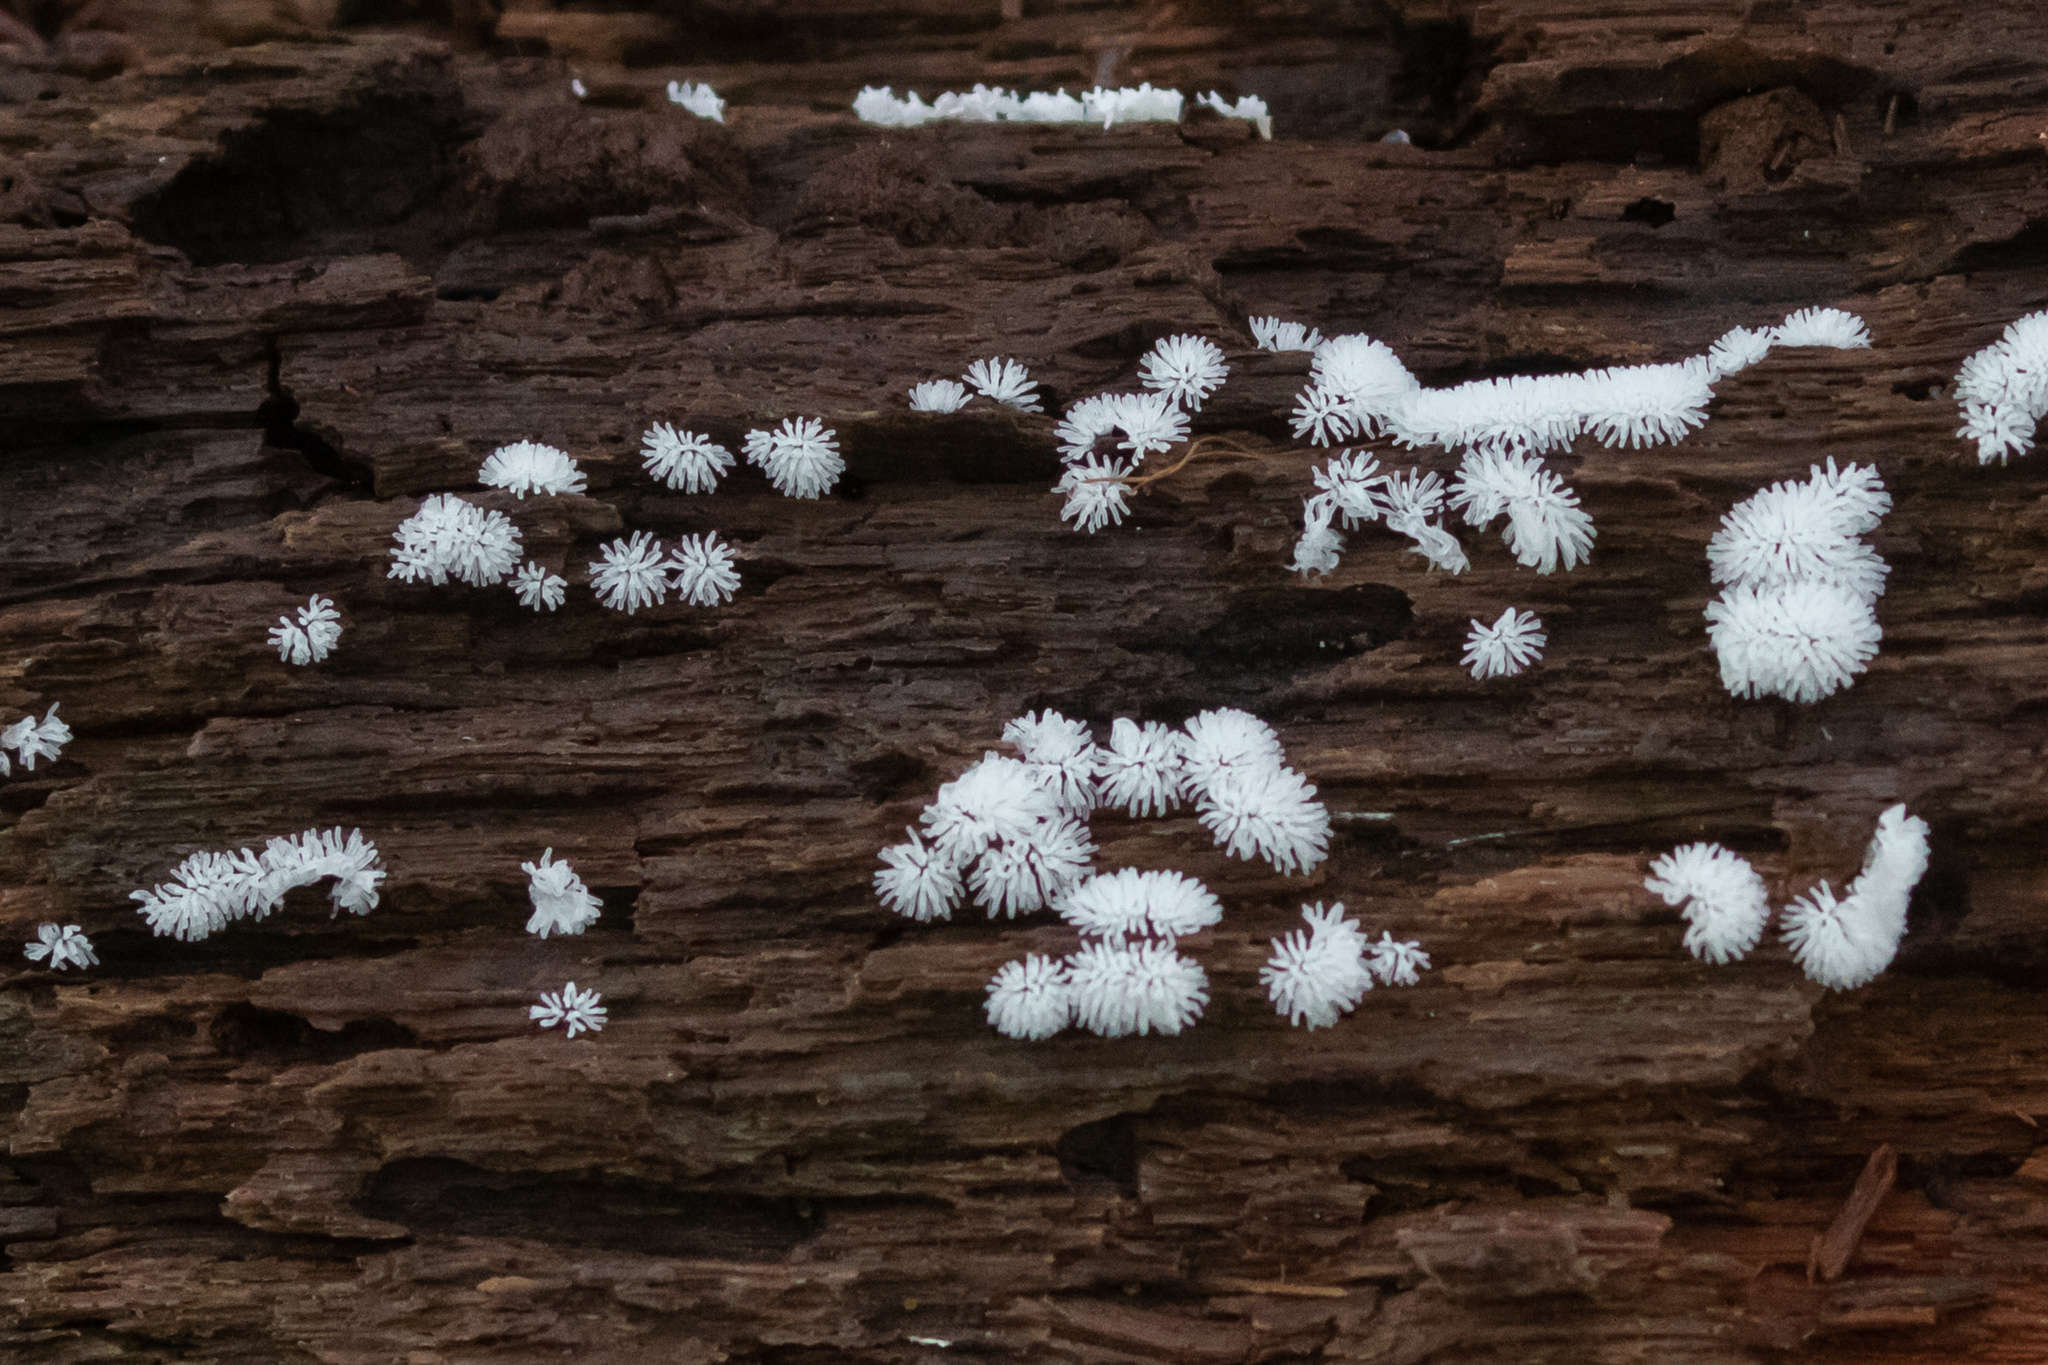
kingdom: Protozoa
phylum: Mycetozoa
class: Protosteliomycetes
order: Ceratiomyxales
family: Ceratiomyxaceae
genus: Ceratiomyxa
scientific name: Ceratiomyxa fruticulosa
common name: Honeycomb coral slime mold
